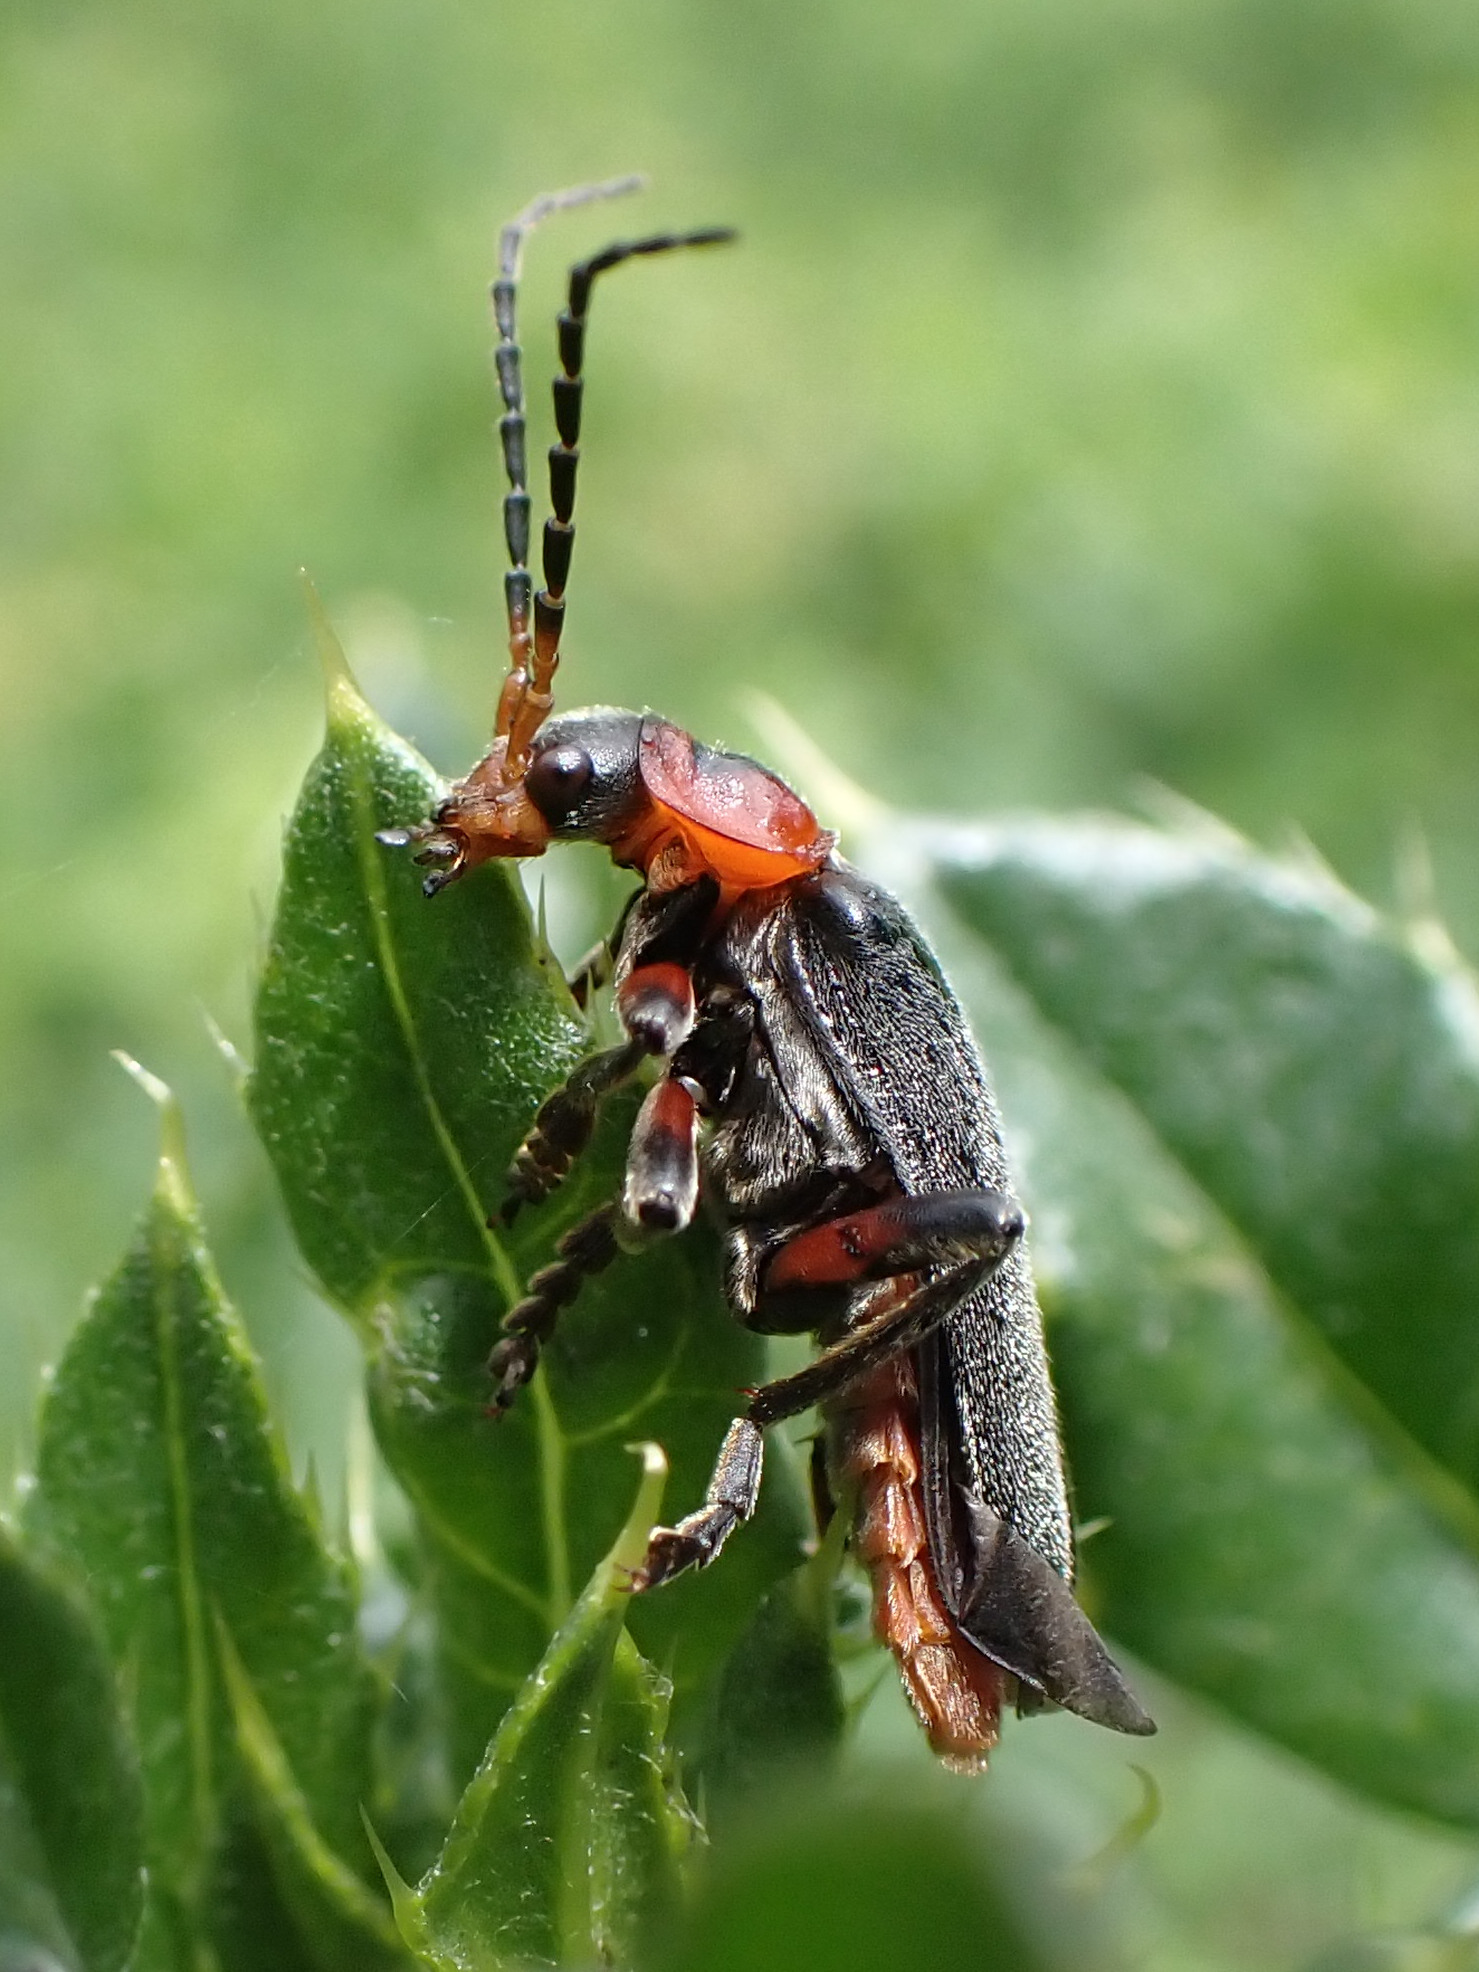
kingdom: Animalia
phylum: Arthropoda
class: Insecta
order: Coleoptera
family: Cantharidae
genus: Cantharis
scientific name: Cantharis rustica
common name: Soldier beetle
